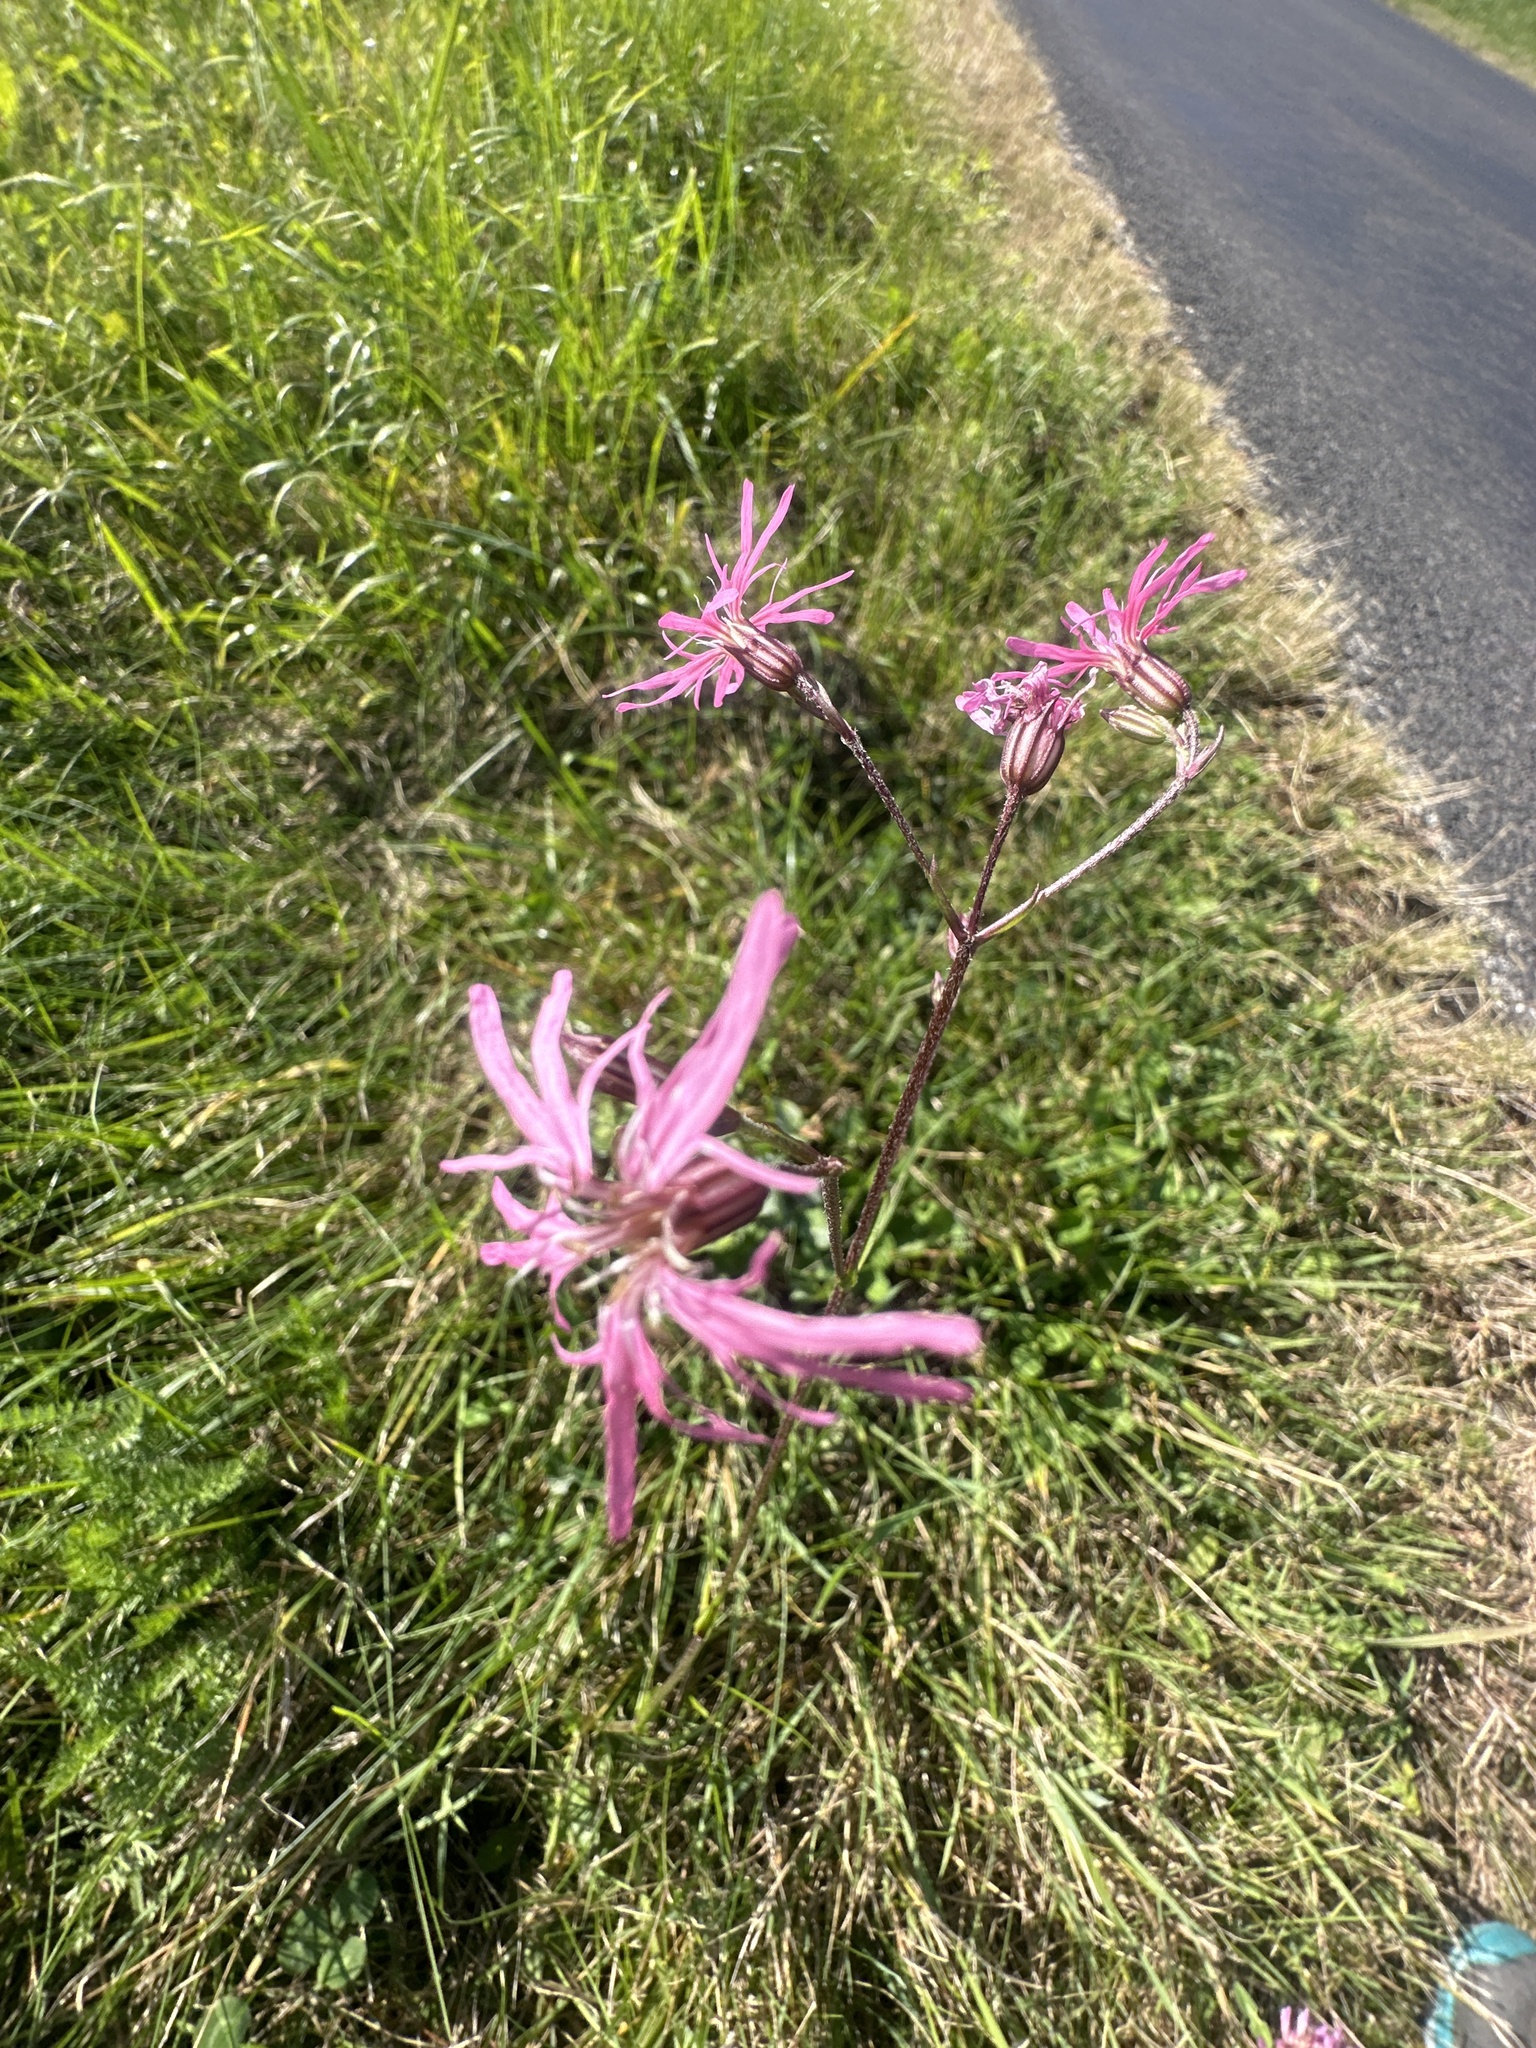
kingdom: Plantae
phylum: Tracheophyta
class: Magnoliopsida
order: Caryophyllales
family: Caryophyllaceae
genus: Silene
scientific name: Silene flos-cuculi
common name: Ragged-robin
